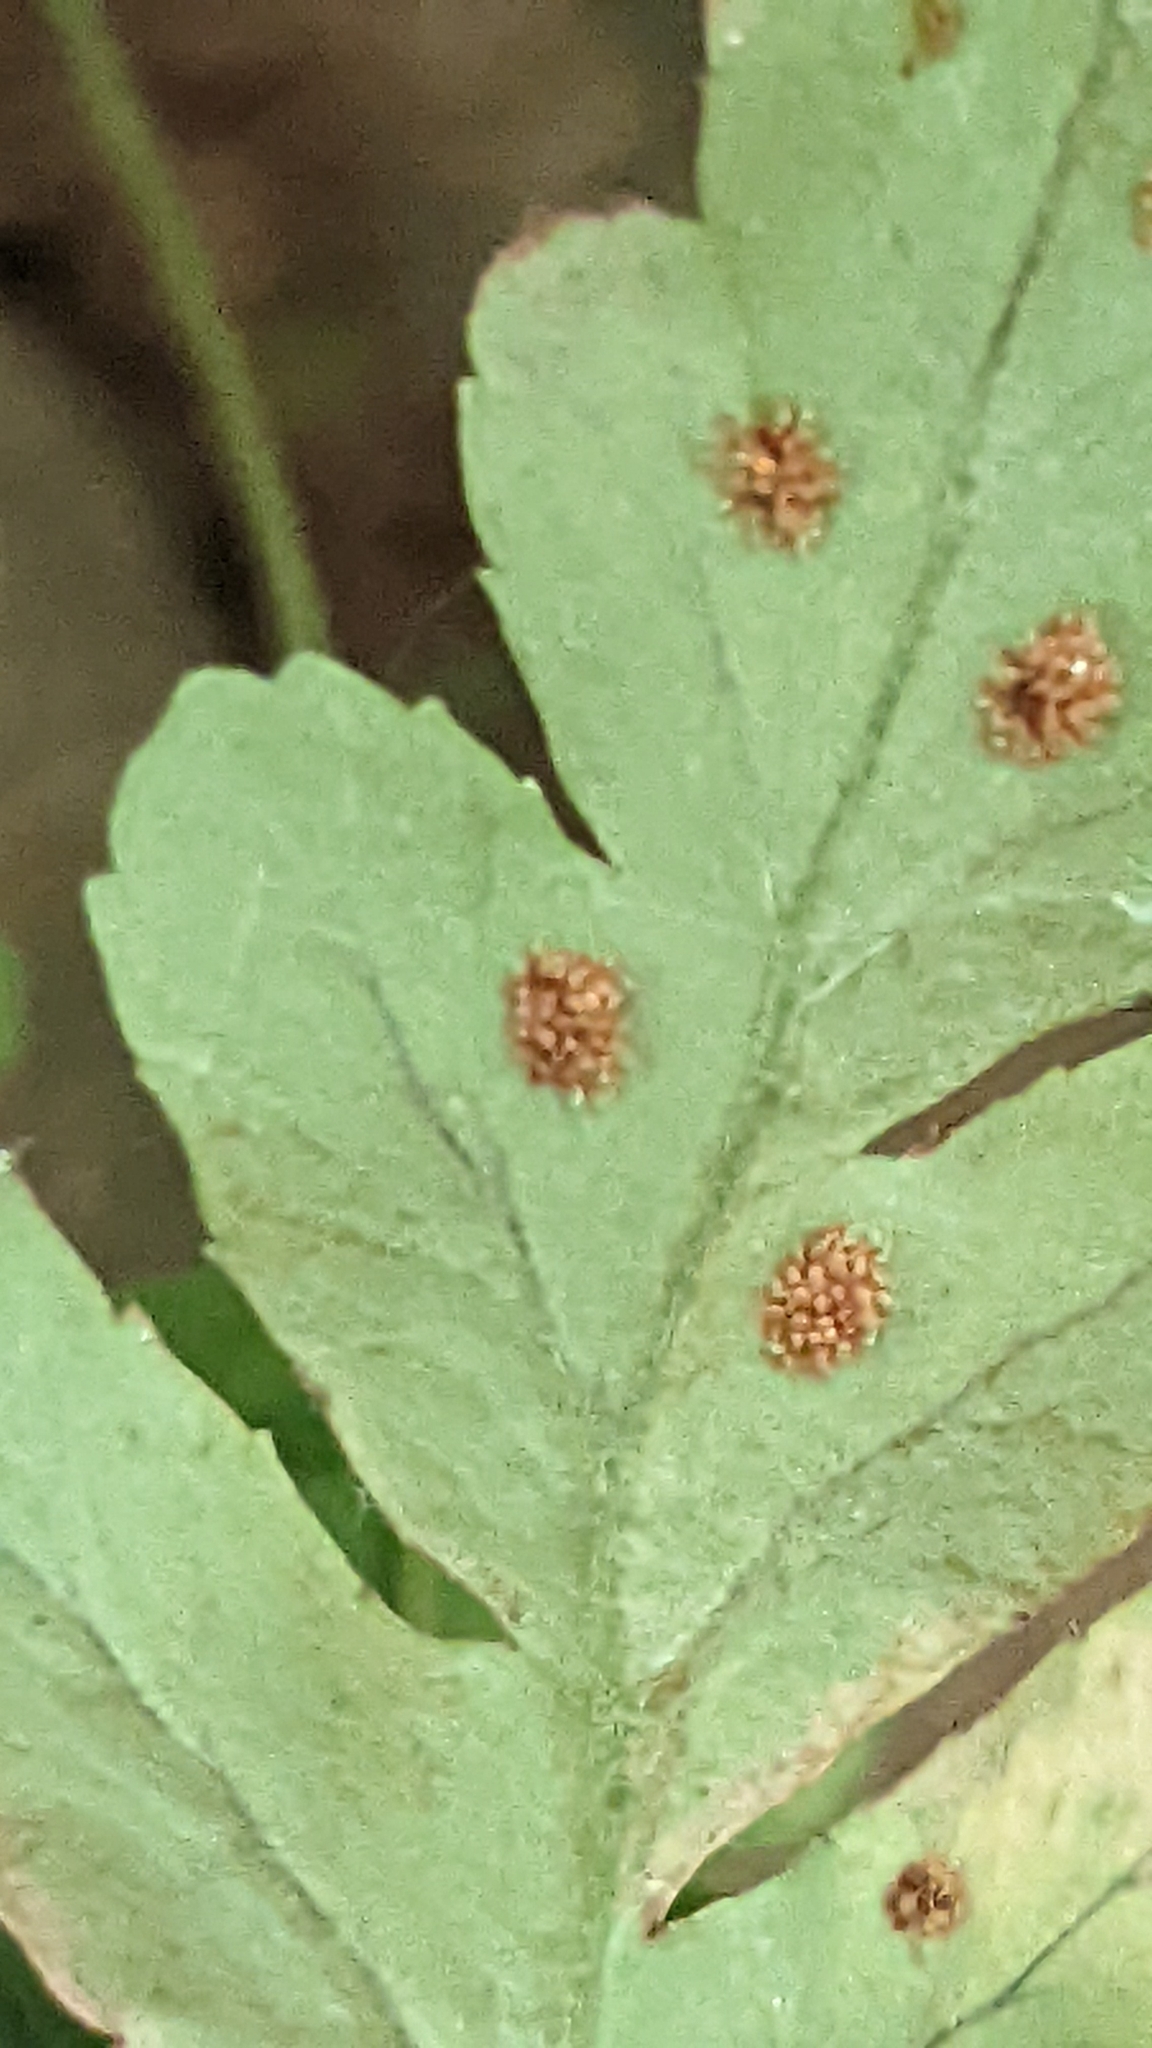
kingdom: Plantae
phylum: Tracheophyta
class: Polypodiopsida
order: Polypodiales
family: Polypodiaceae
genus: Polypodium
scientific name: Polypodium hesperium
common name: Western polypody
